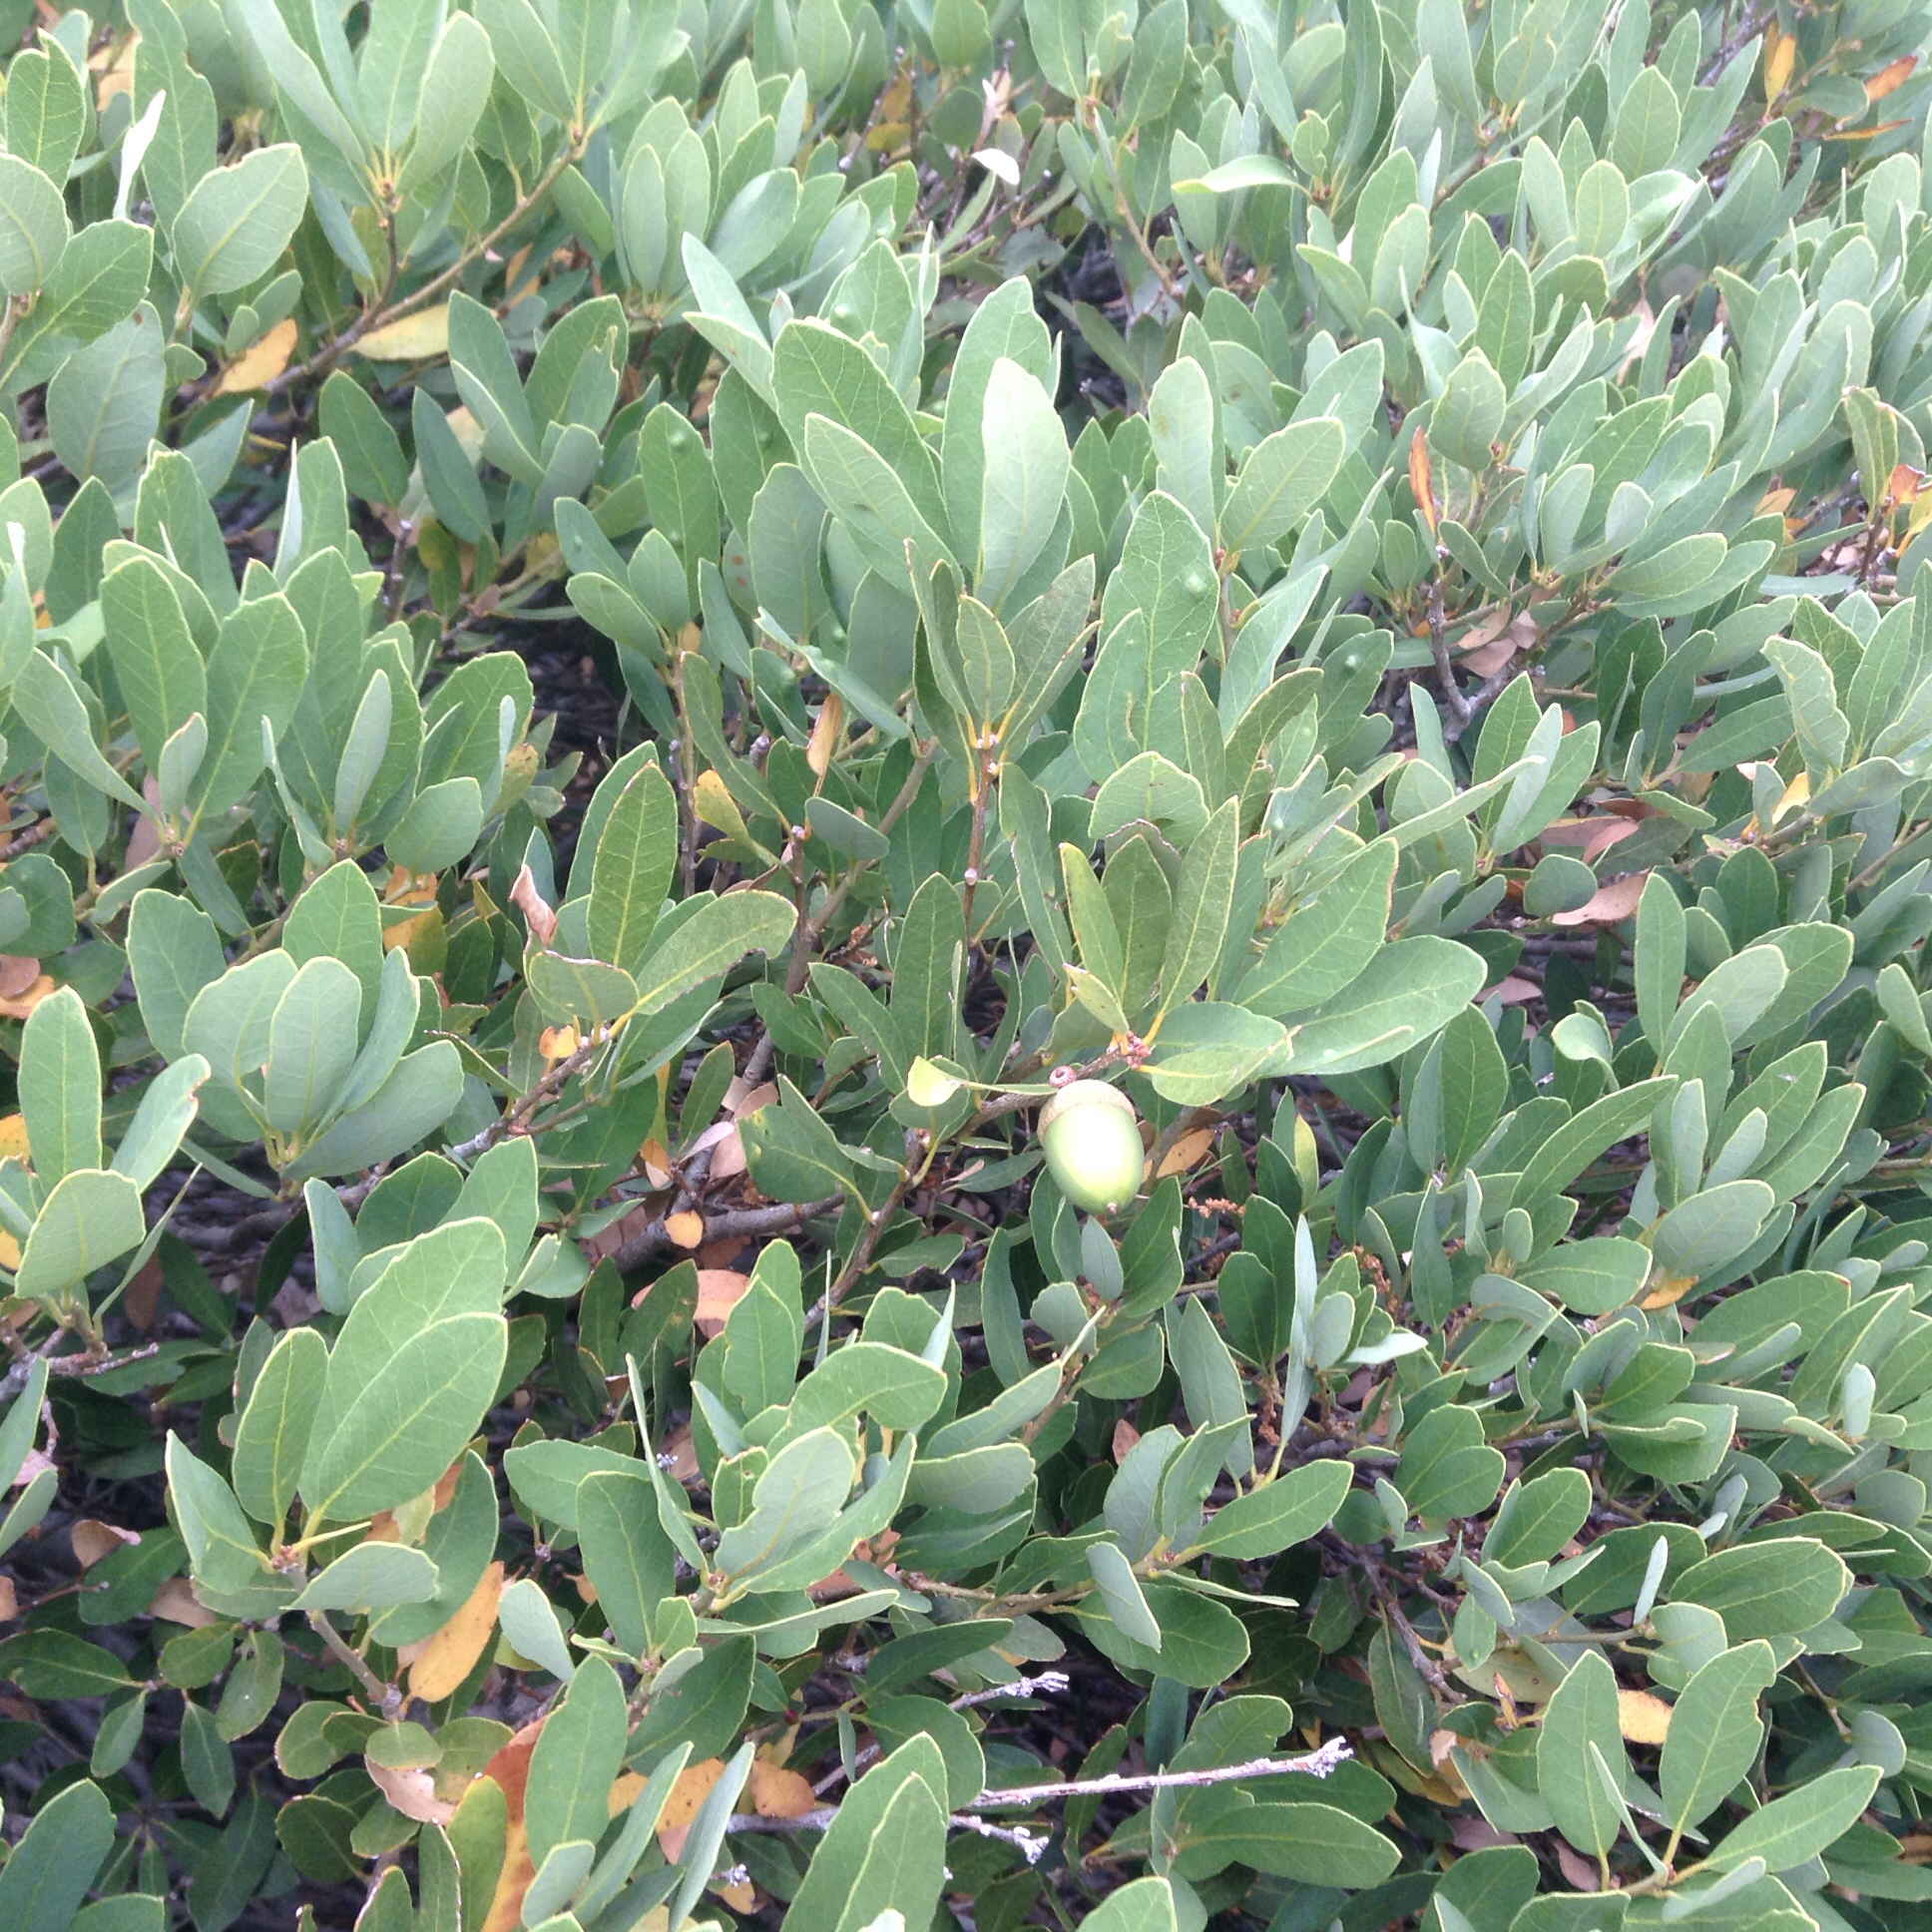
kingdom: Plantae
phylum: Tracheophyta
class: Magnoliopsida
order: Fagales
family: Fagaceae
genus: Quercus
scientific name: Quercus vacciniifolia
